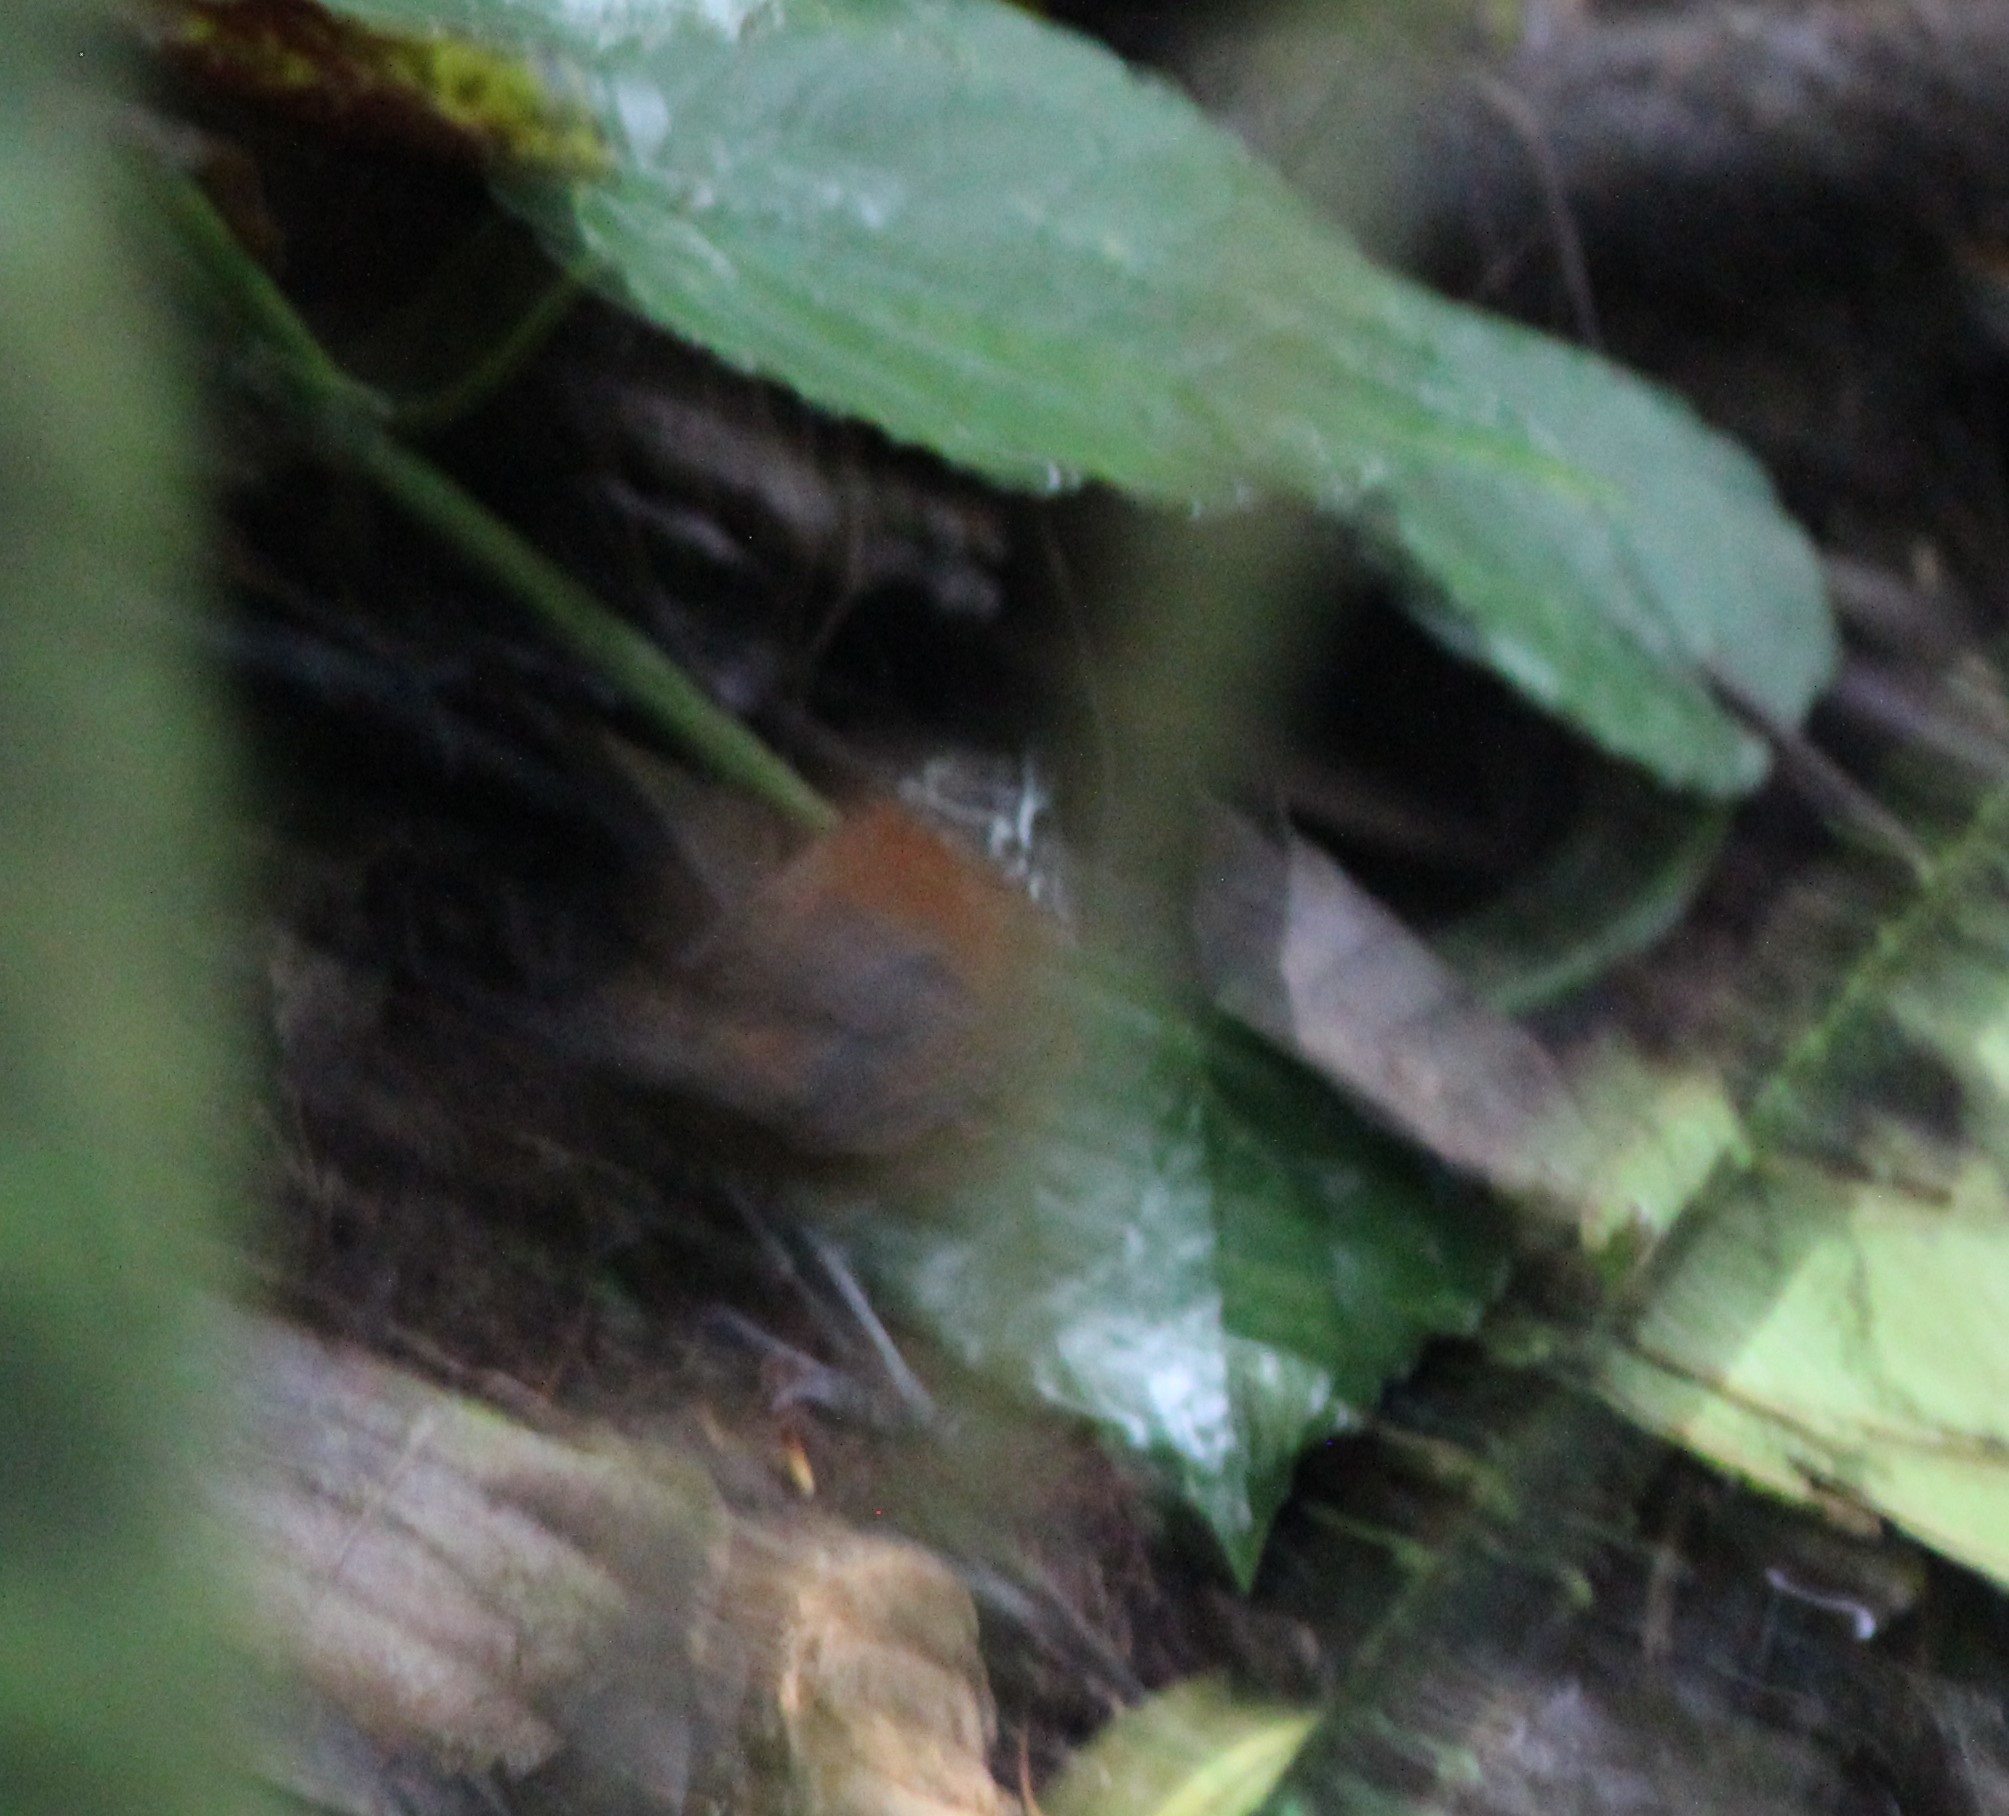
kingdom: Animalia
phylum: Chordata
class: Aves
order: Passeriformes
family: Troglodytidae
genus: Henicorhina
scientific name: Henicorhina leucophrys
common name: Gray-breasted wood-wren
